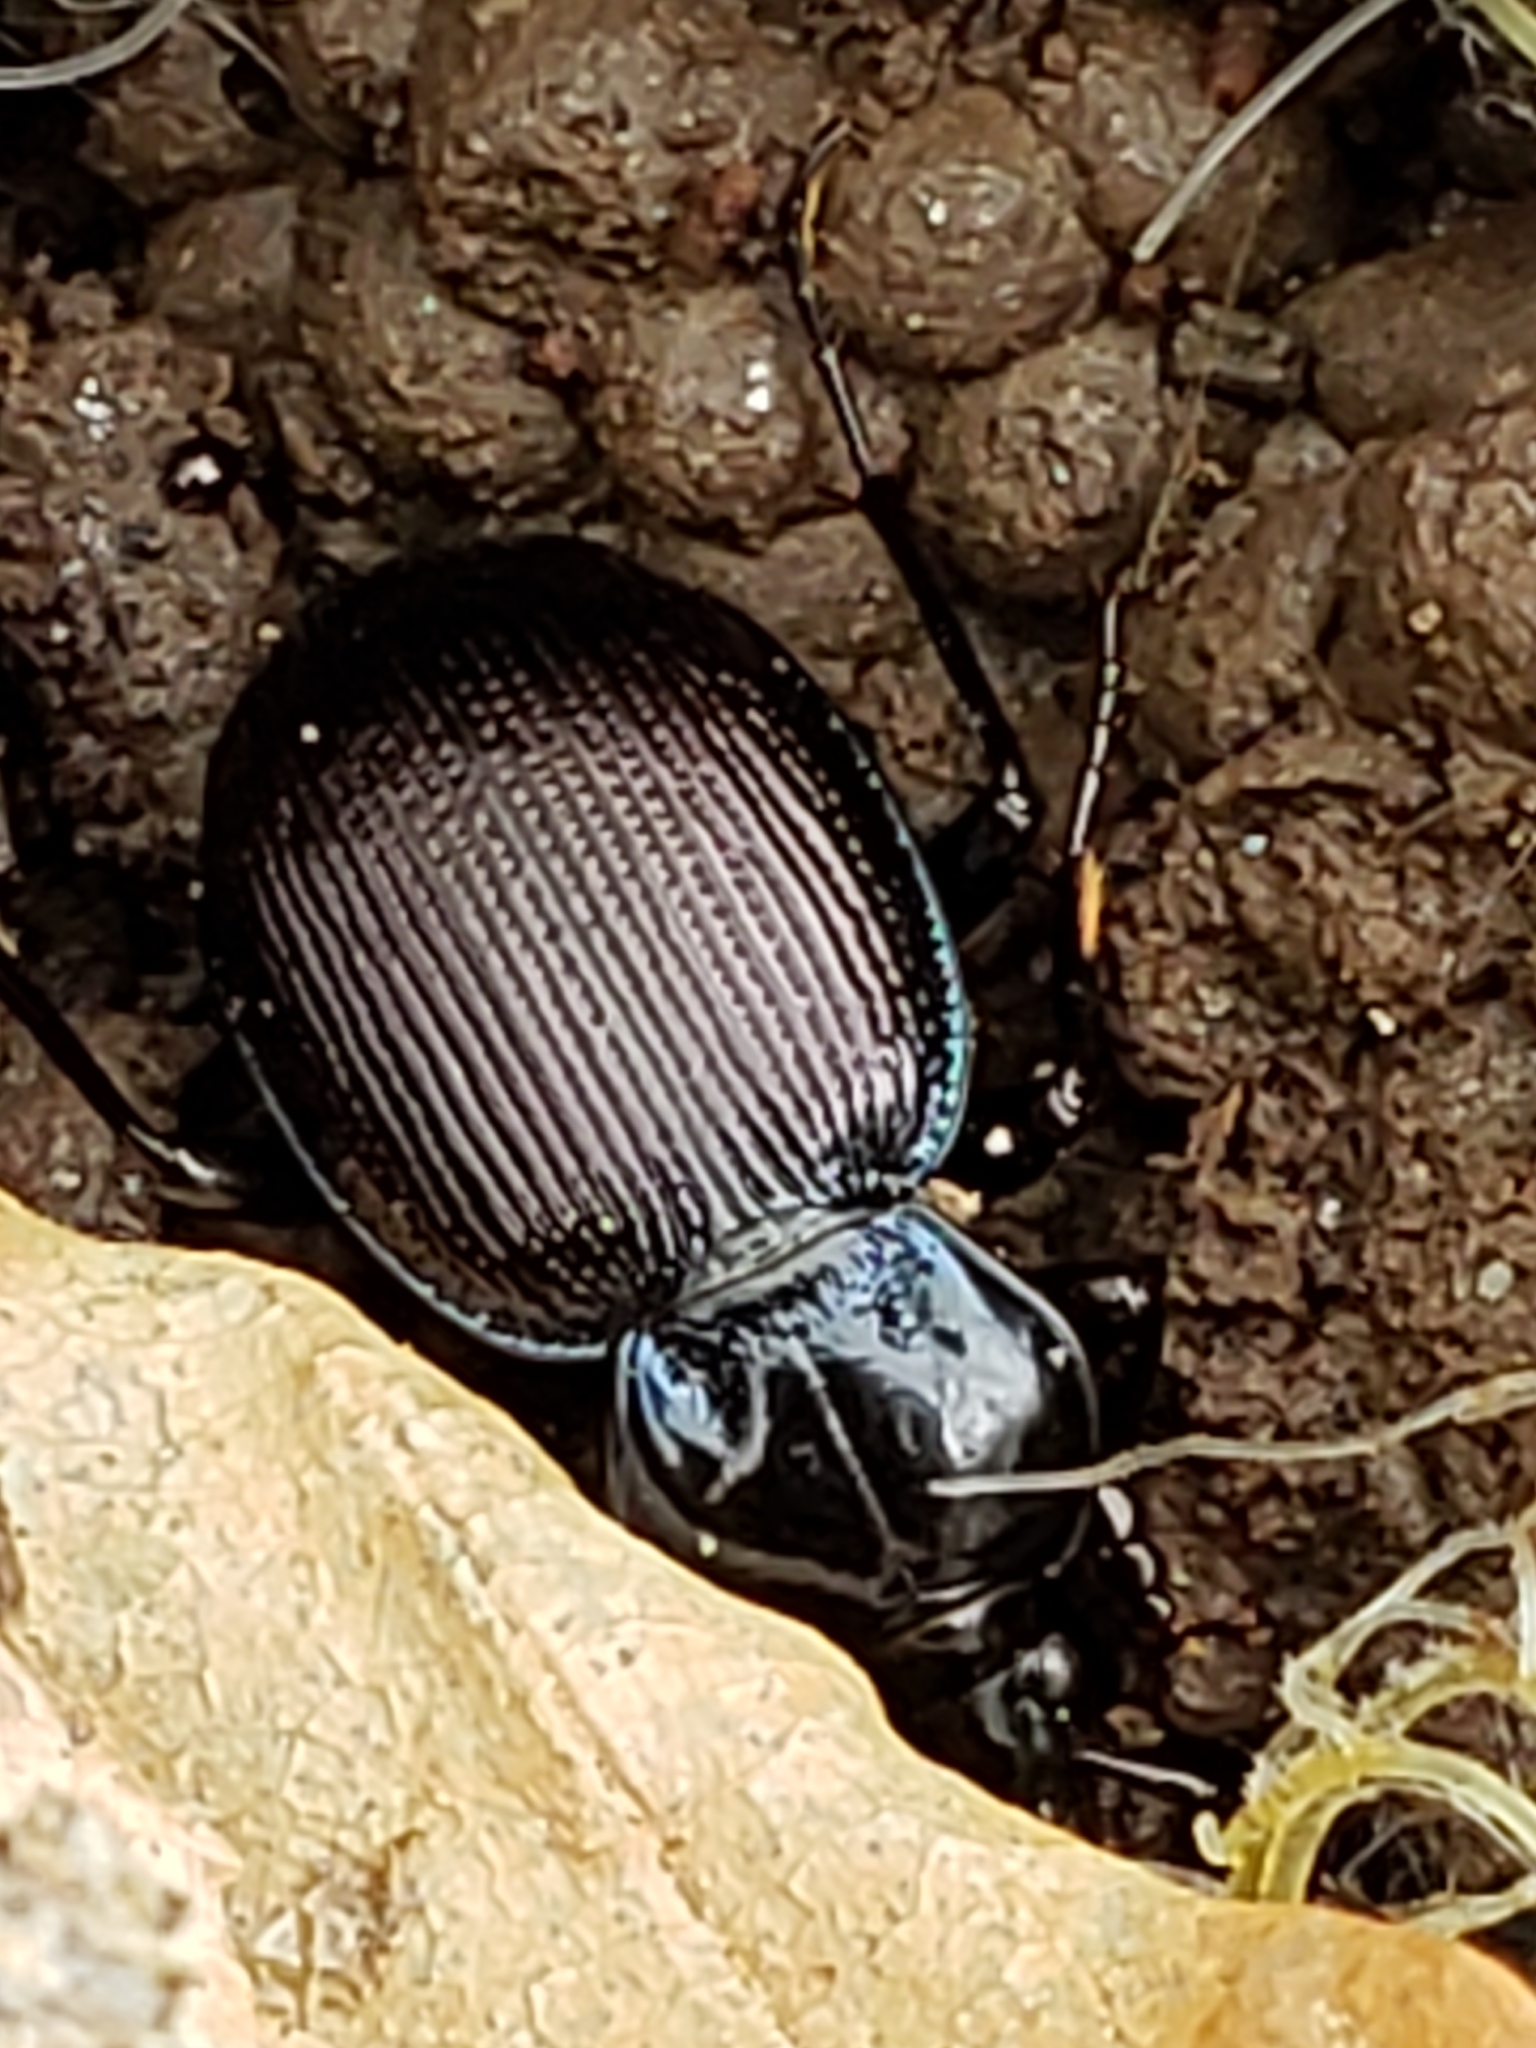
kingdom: Animalia
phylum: Arthropoda
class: Insecta
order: Coleoptera
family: Carabidae
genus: Sphaeroderus
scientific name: Sphaeroderus stenostomus
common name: Small snail-eating ground beetle
